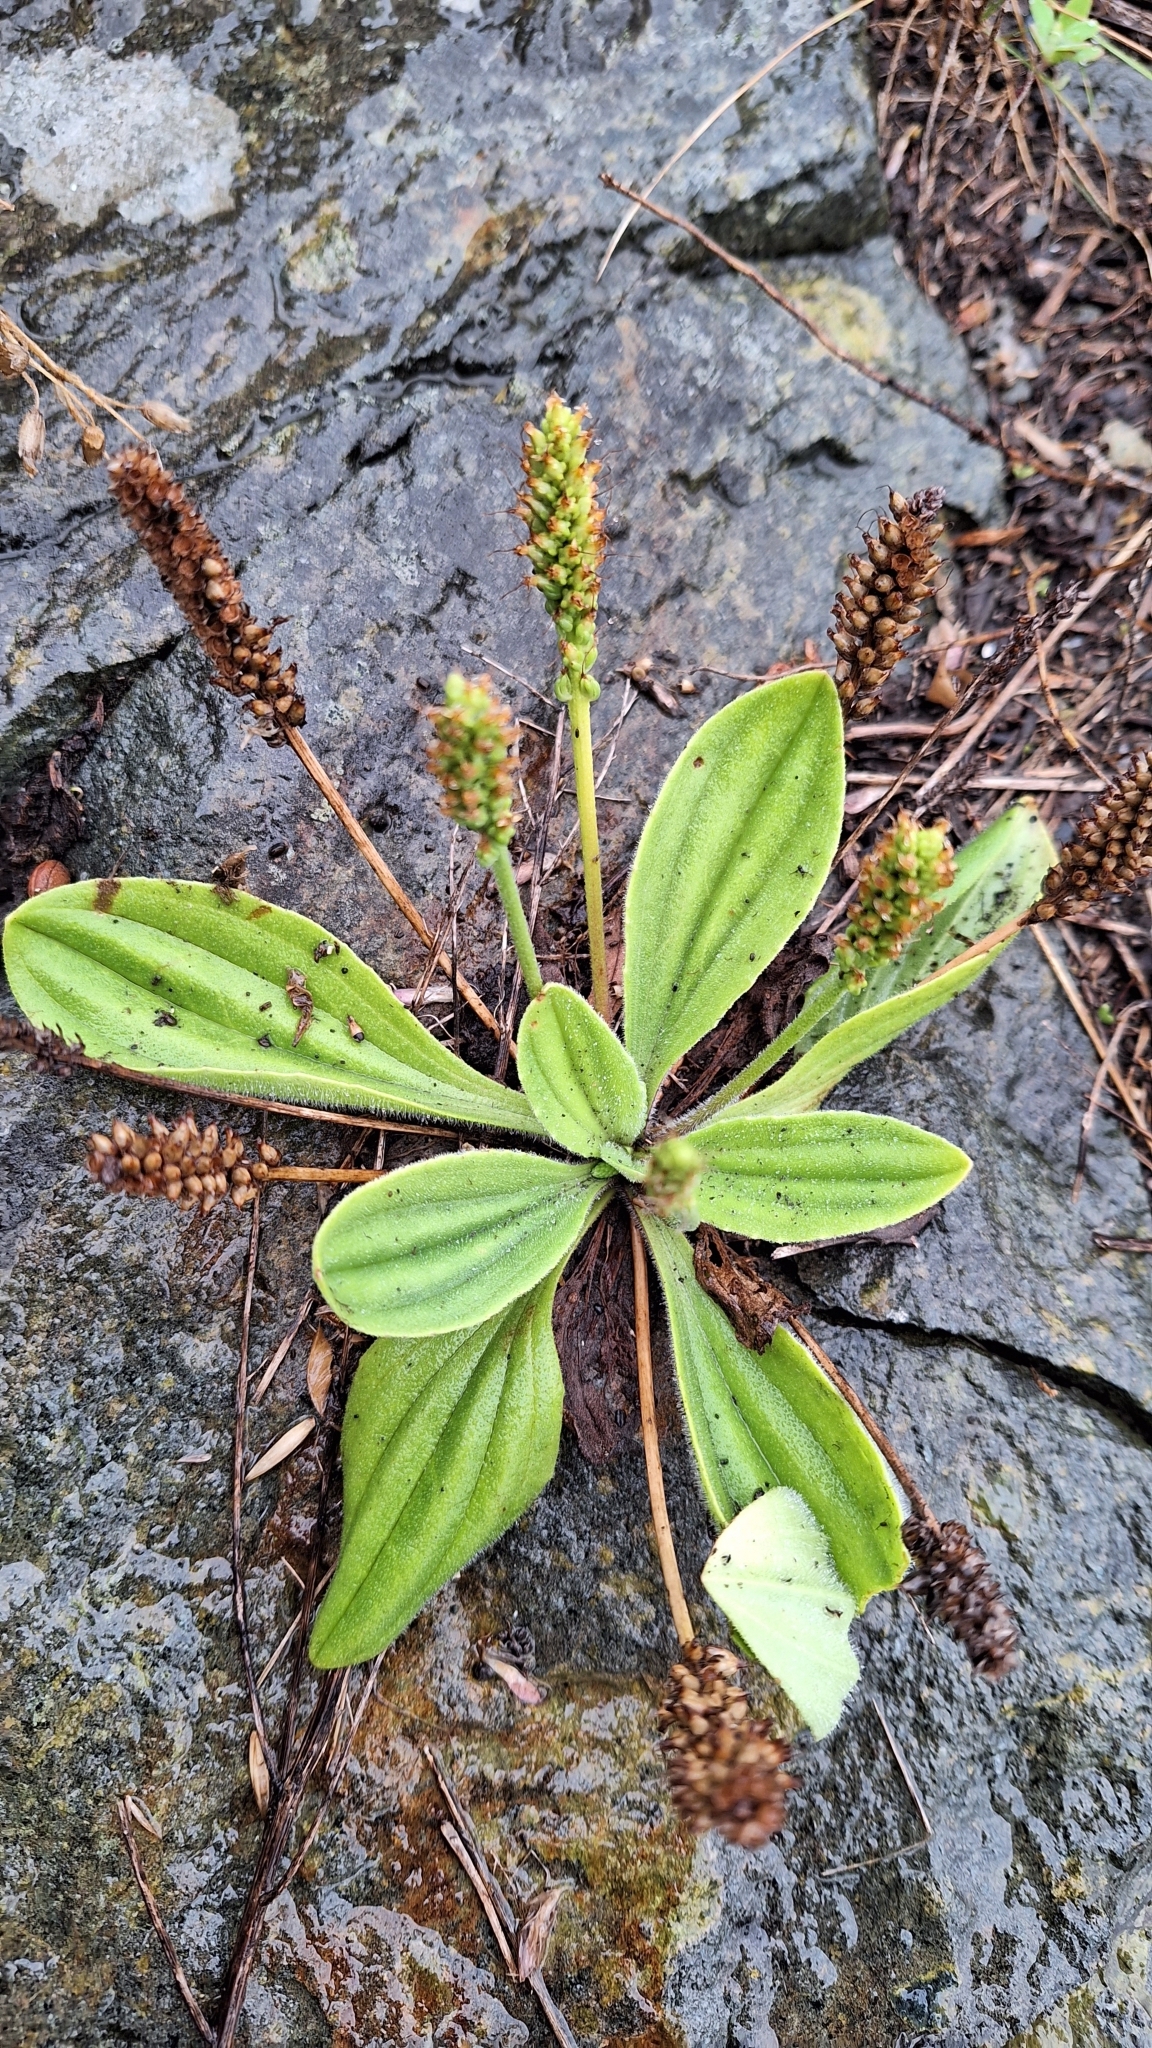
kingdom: Plantae
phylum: Tracheophyta
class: Magnoliopsida
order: Lamiales
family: Plantaginaceae
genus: Plantago
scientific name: Plantago camtschatica
